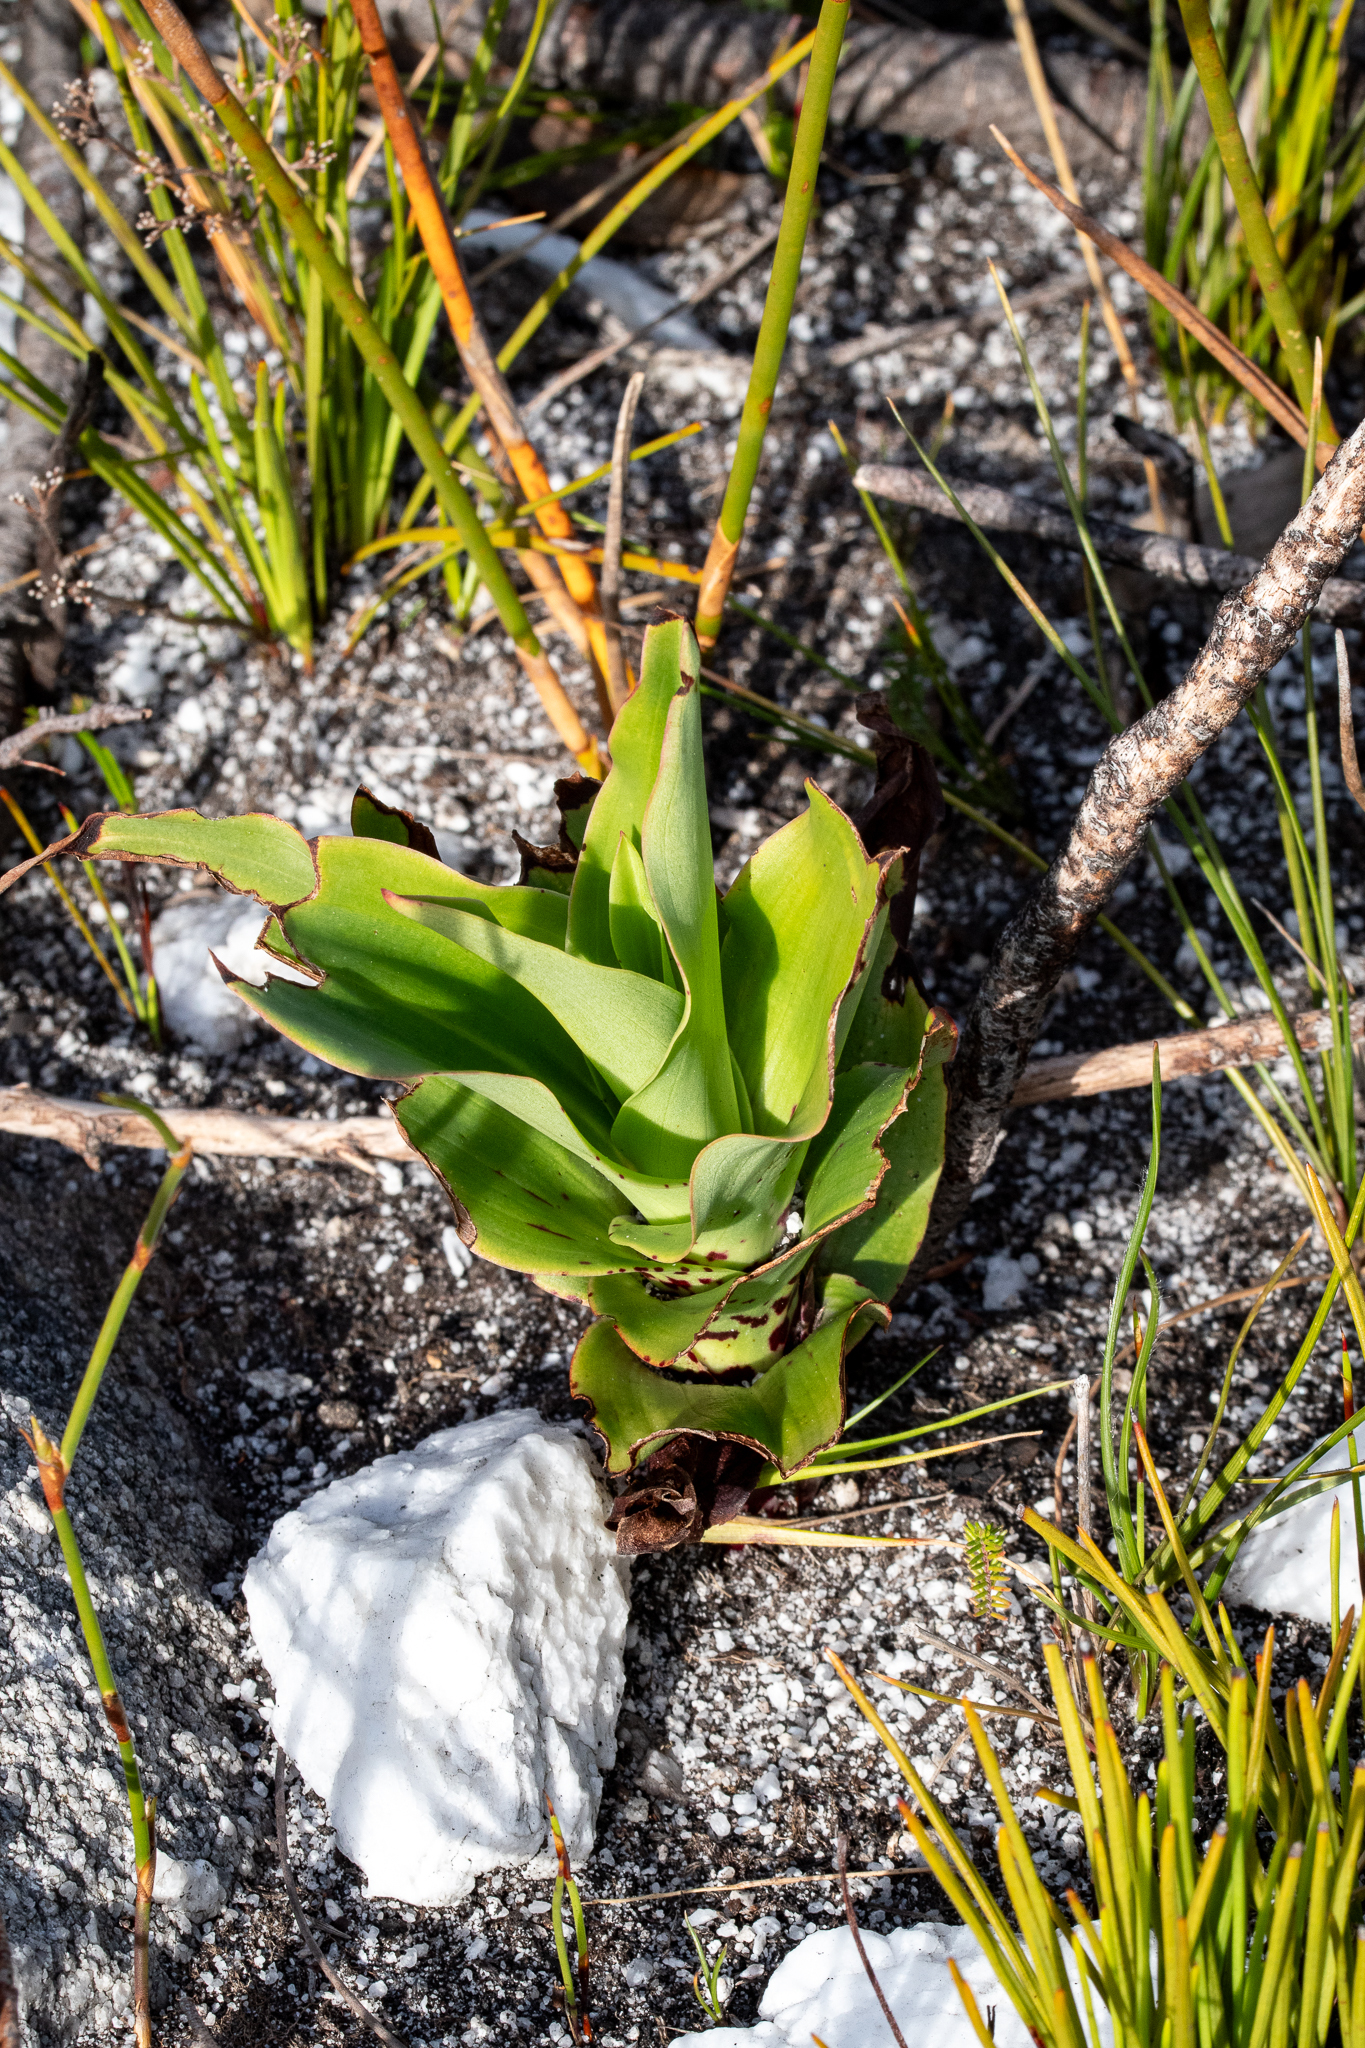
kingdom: Plantae
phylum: Tracheophyta
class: Liliopsida
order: Asparagales
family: Orchidaceae
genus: Disa
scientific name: Disa cornuta
